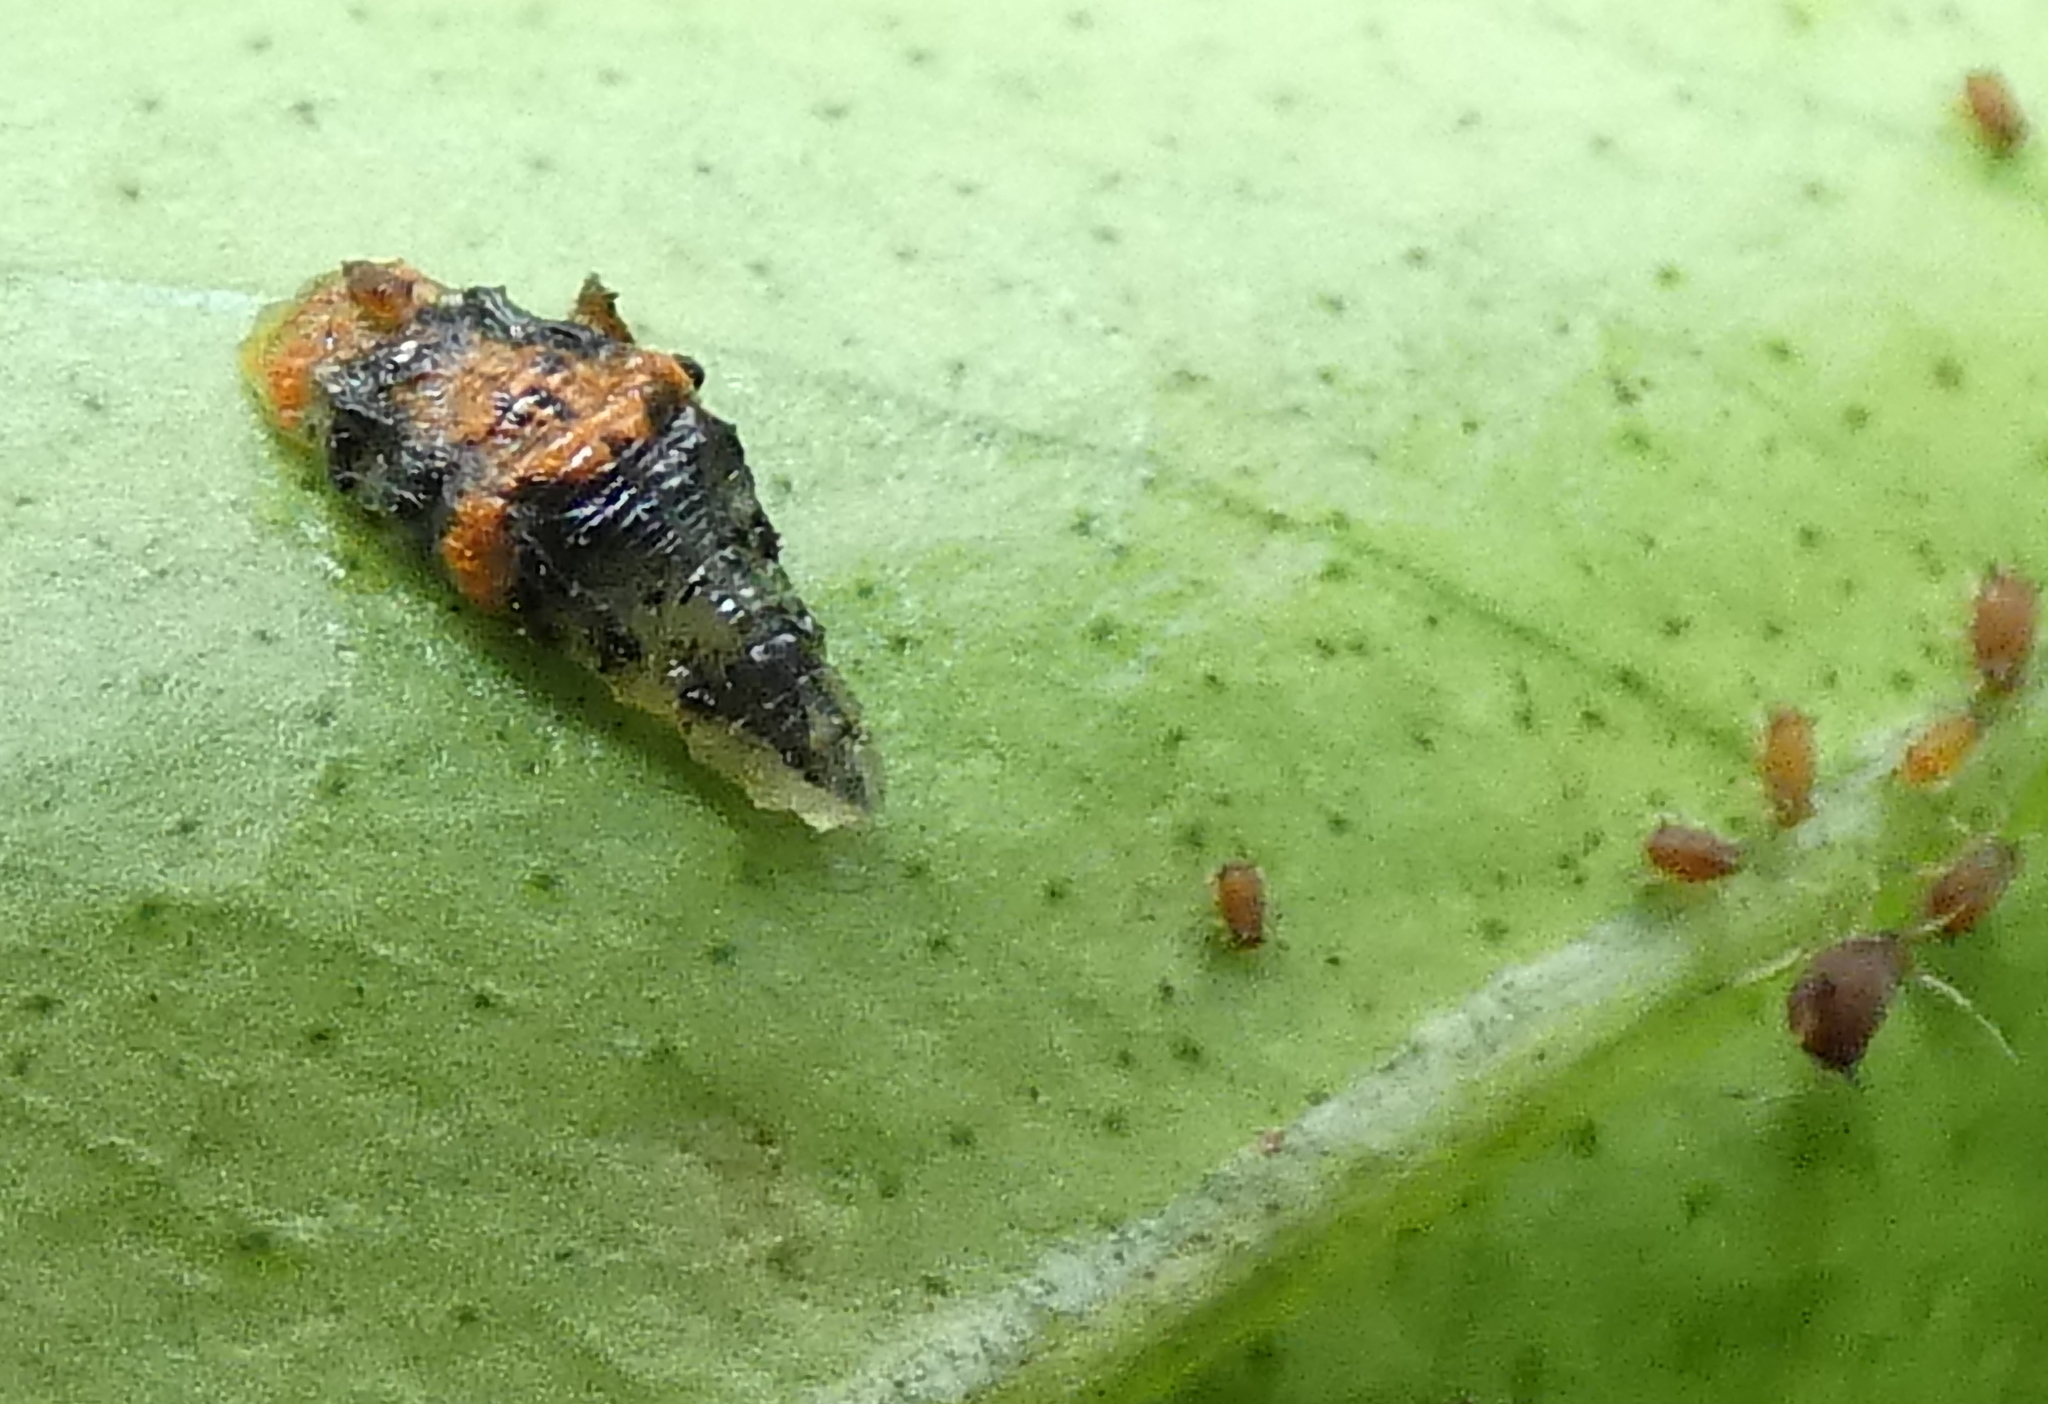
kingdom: Animalia
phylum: Arthropoda
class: Insecta
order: Diptera
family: Syrphidae
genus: Ocyptamus
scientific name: Ocyptamus gastrostactus
